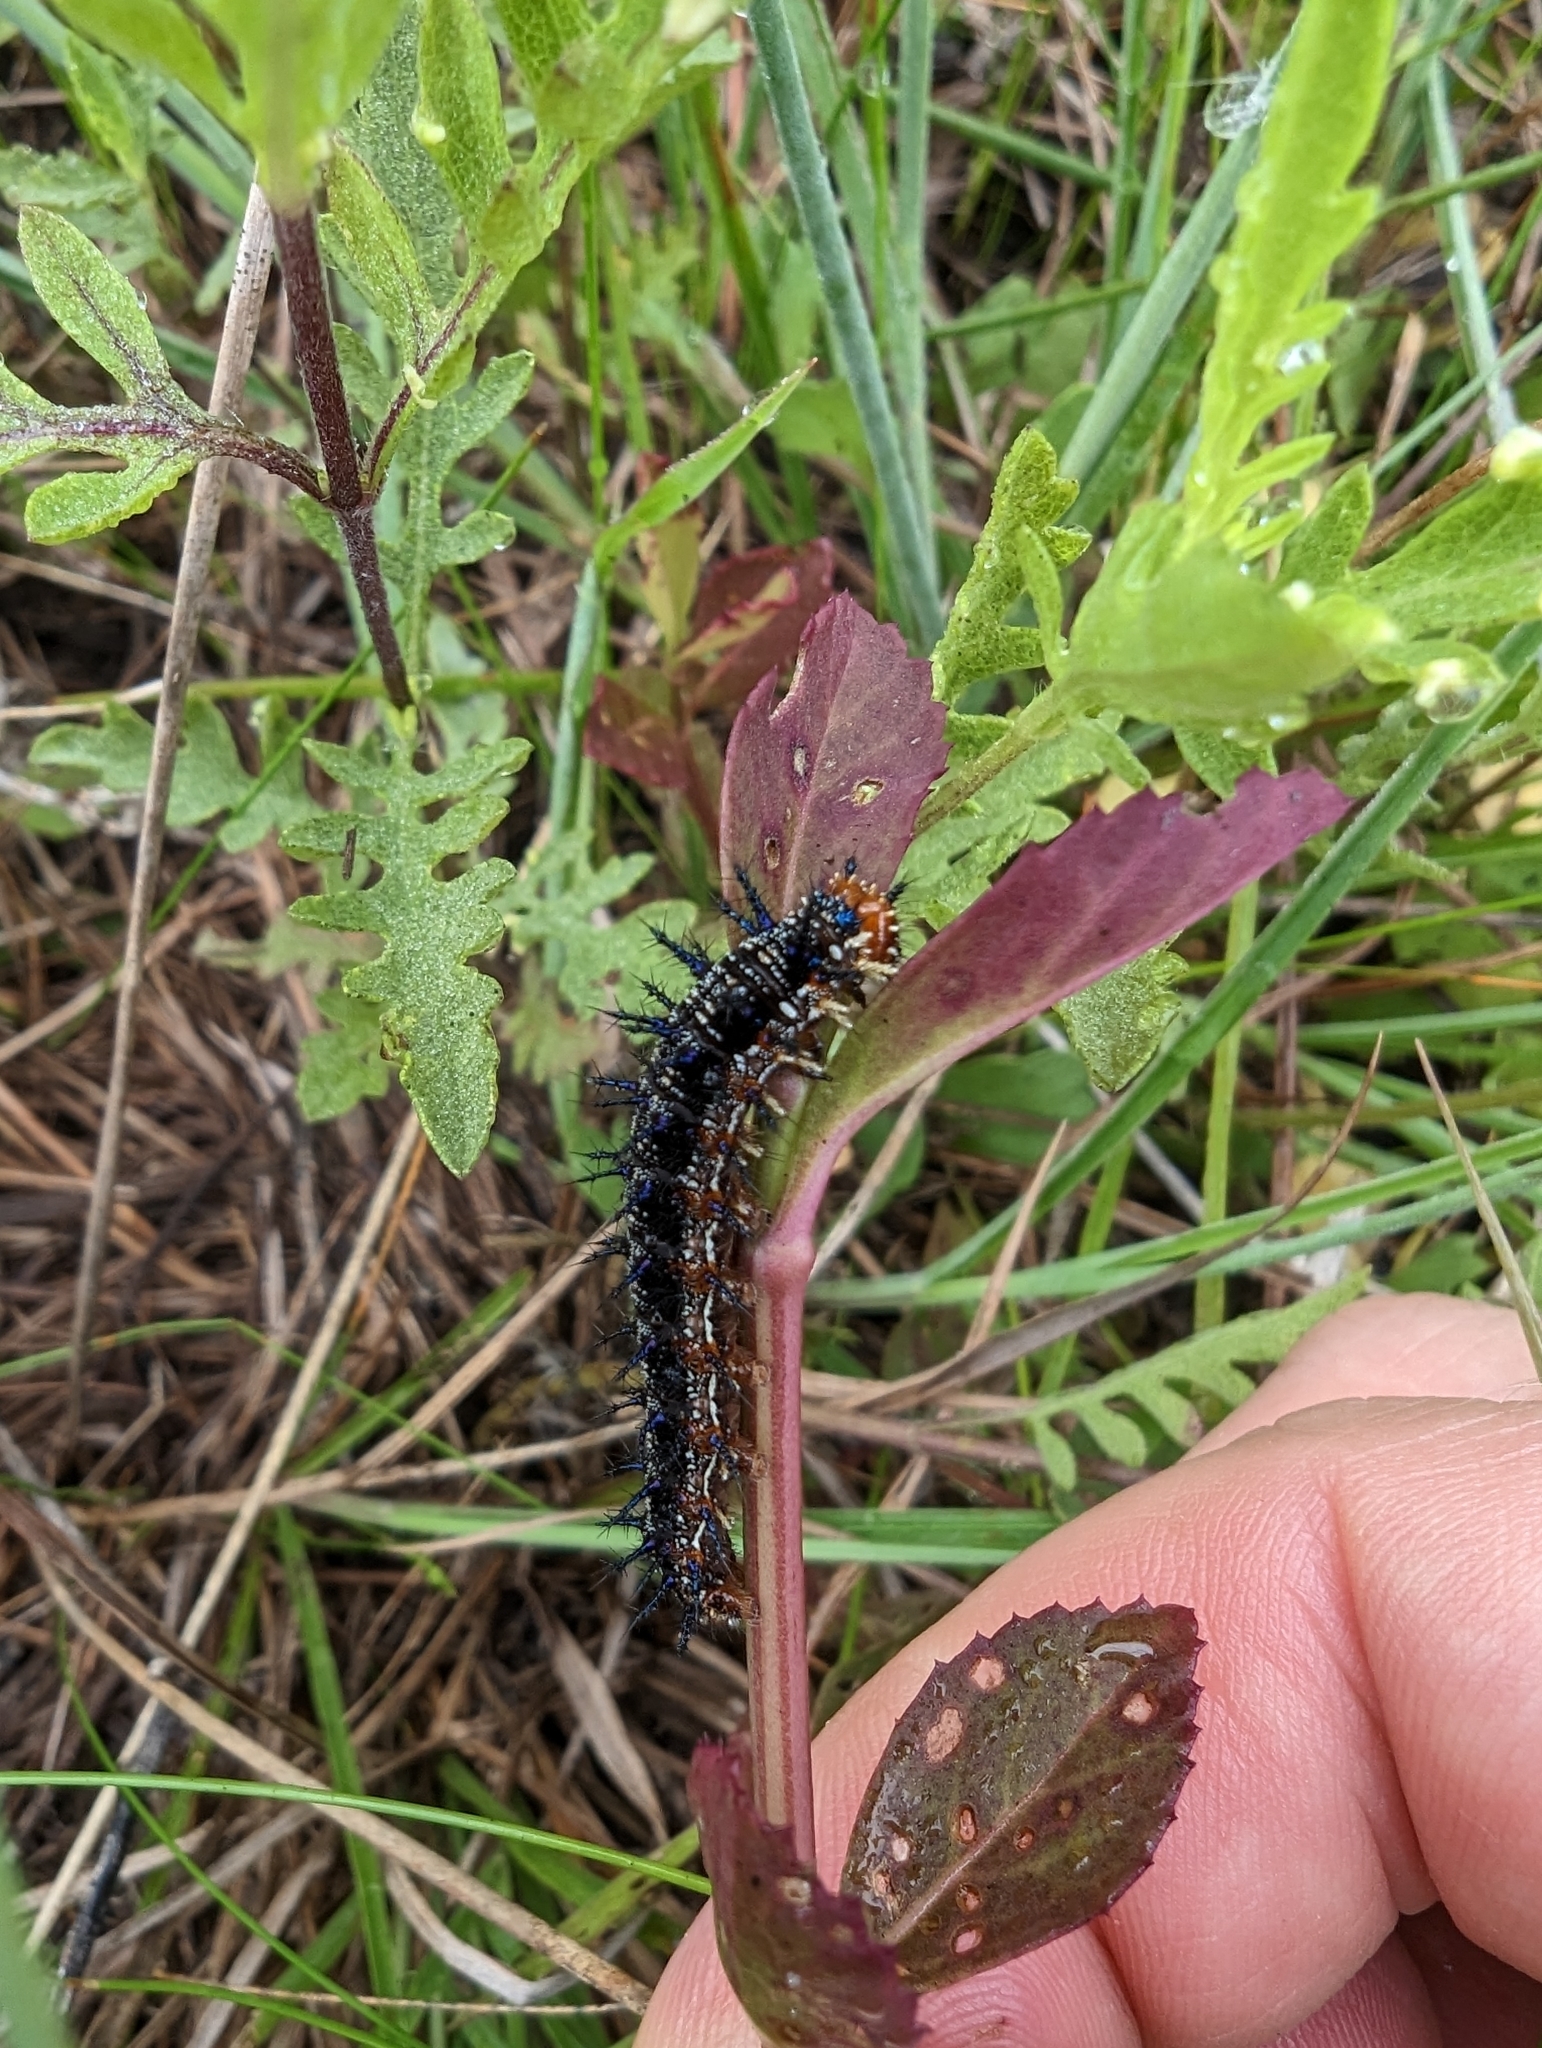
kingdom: Animalia
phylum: Arthropoda
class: Insecta
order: Lepidoptera
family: Nymphalidae
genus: Junonia
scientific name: Junonia coenia
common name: Common buckeye
